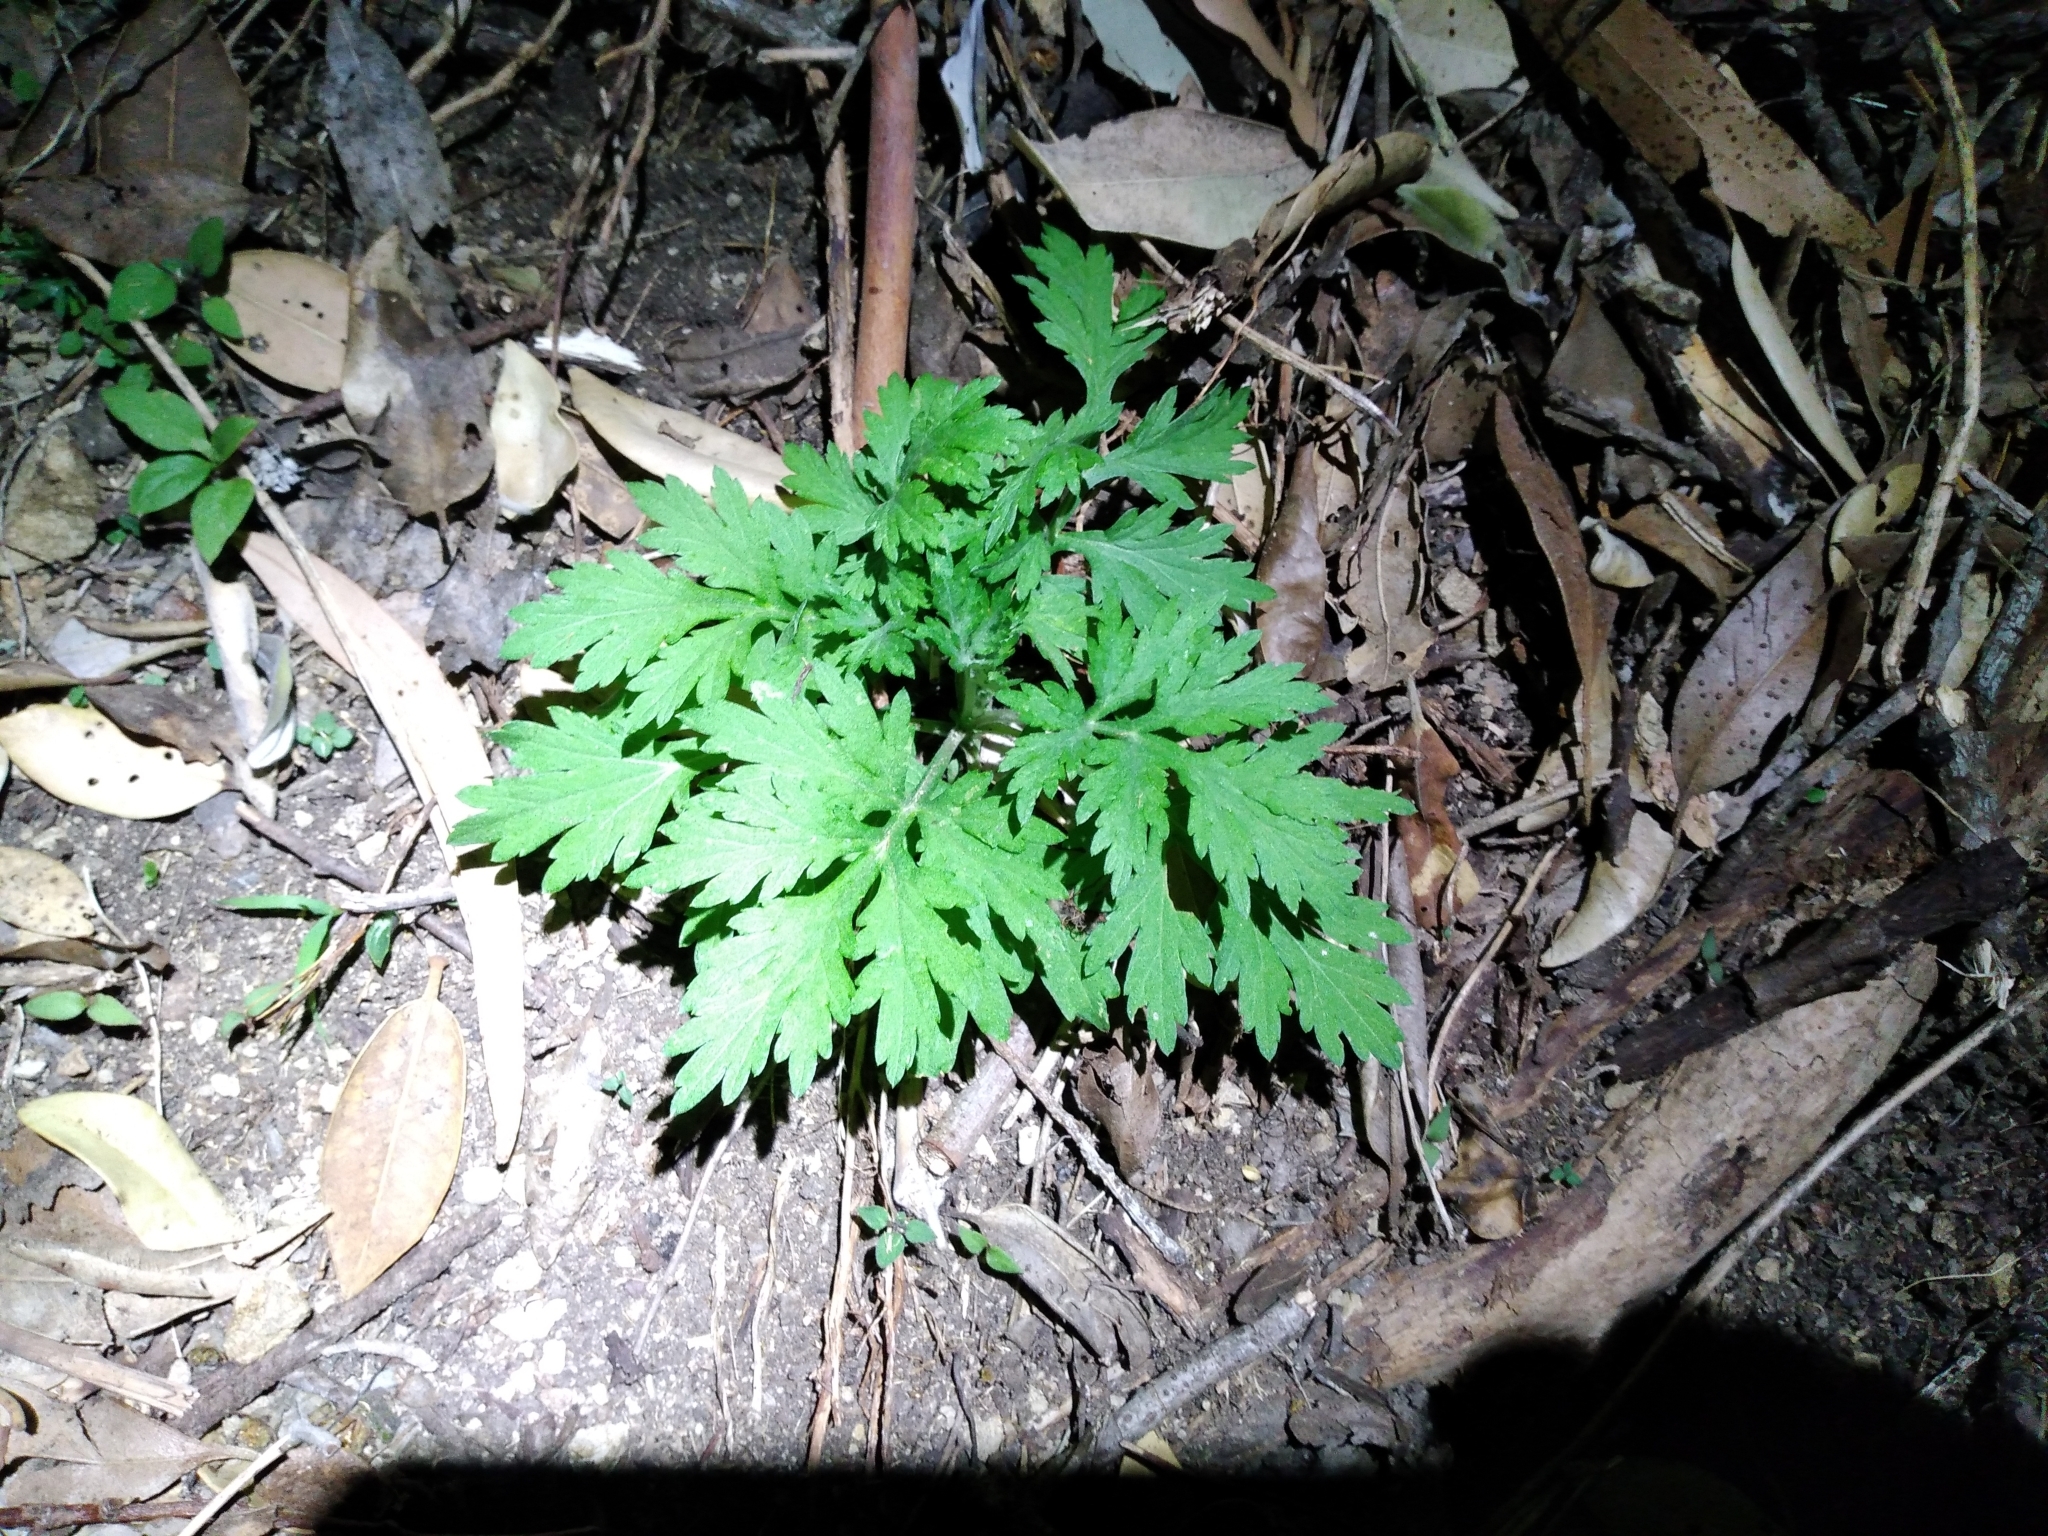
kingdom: Plantae
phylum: Tracheophyta
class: Magnoliopsida
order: Asterales
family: Asteraceae
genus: Artemisia
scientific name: Artemisia verlotiorum
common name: Chinese mugwort
